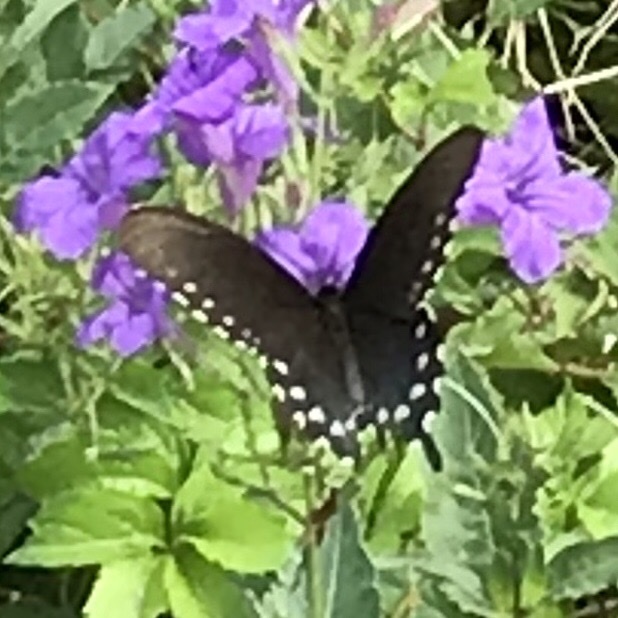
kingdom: Animalia
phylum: Arthropoda
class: Insecta
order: Lepidoptera
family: Papilionidae
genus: Battus
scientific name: Battus philenor
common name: Pipevine swallowtail
